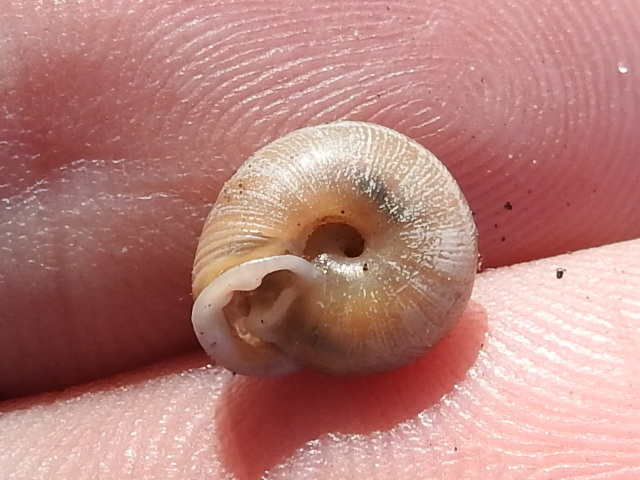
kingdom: Animalia
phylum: Mollusca
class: Gastropoda
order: Stylommatophora
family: Polygyridae
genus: Daedalochila
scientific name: Daedalochila mooreana
